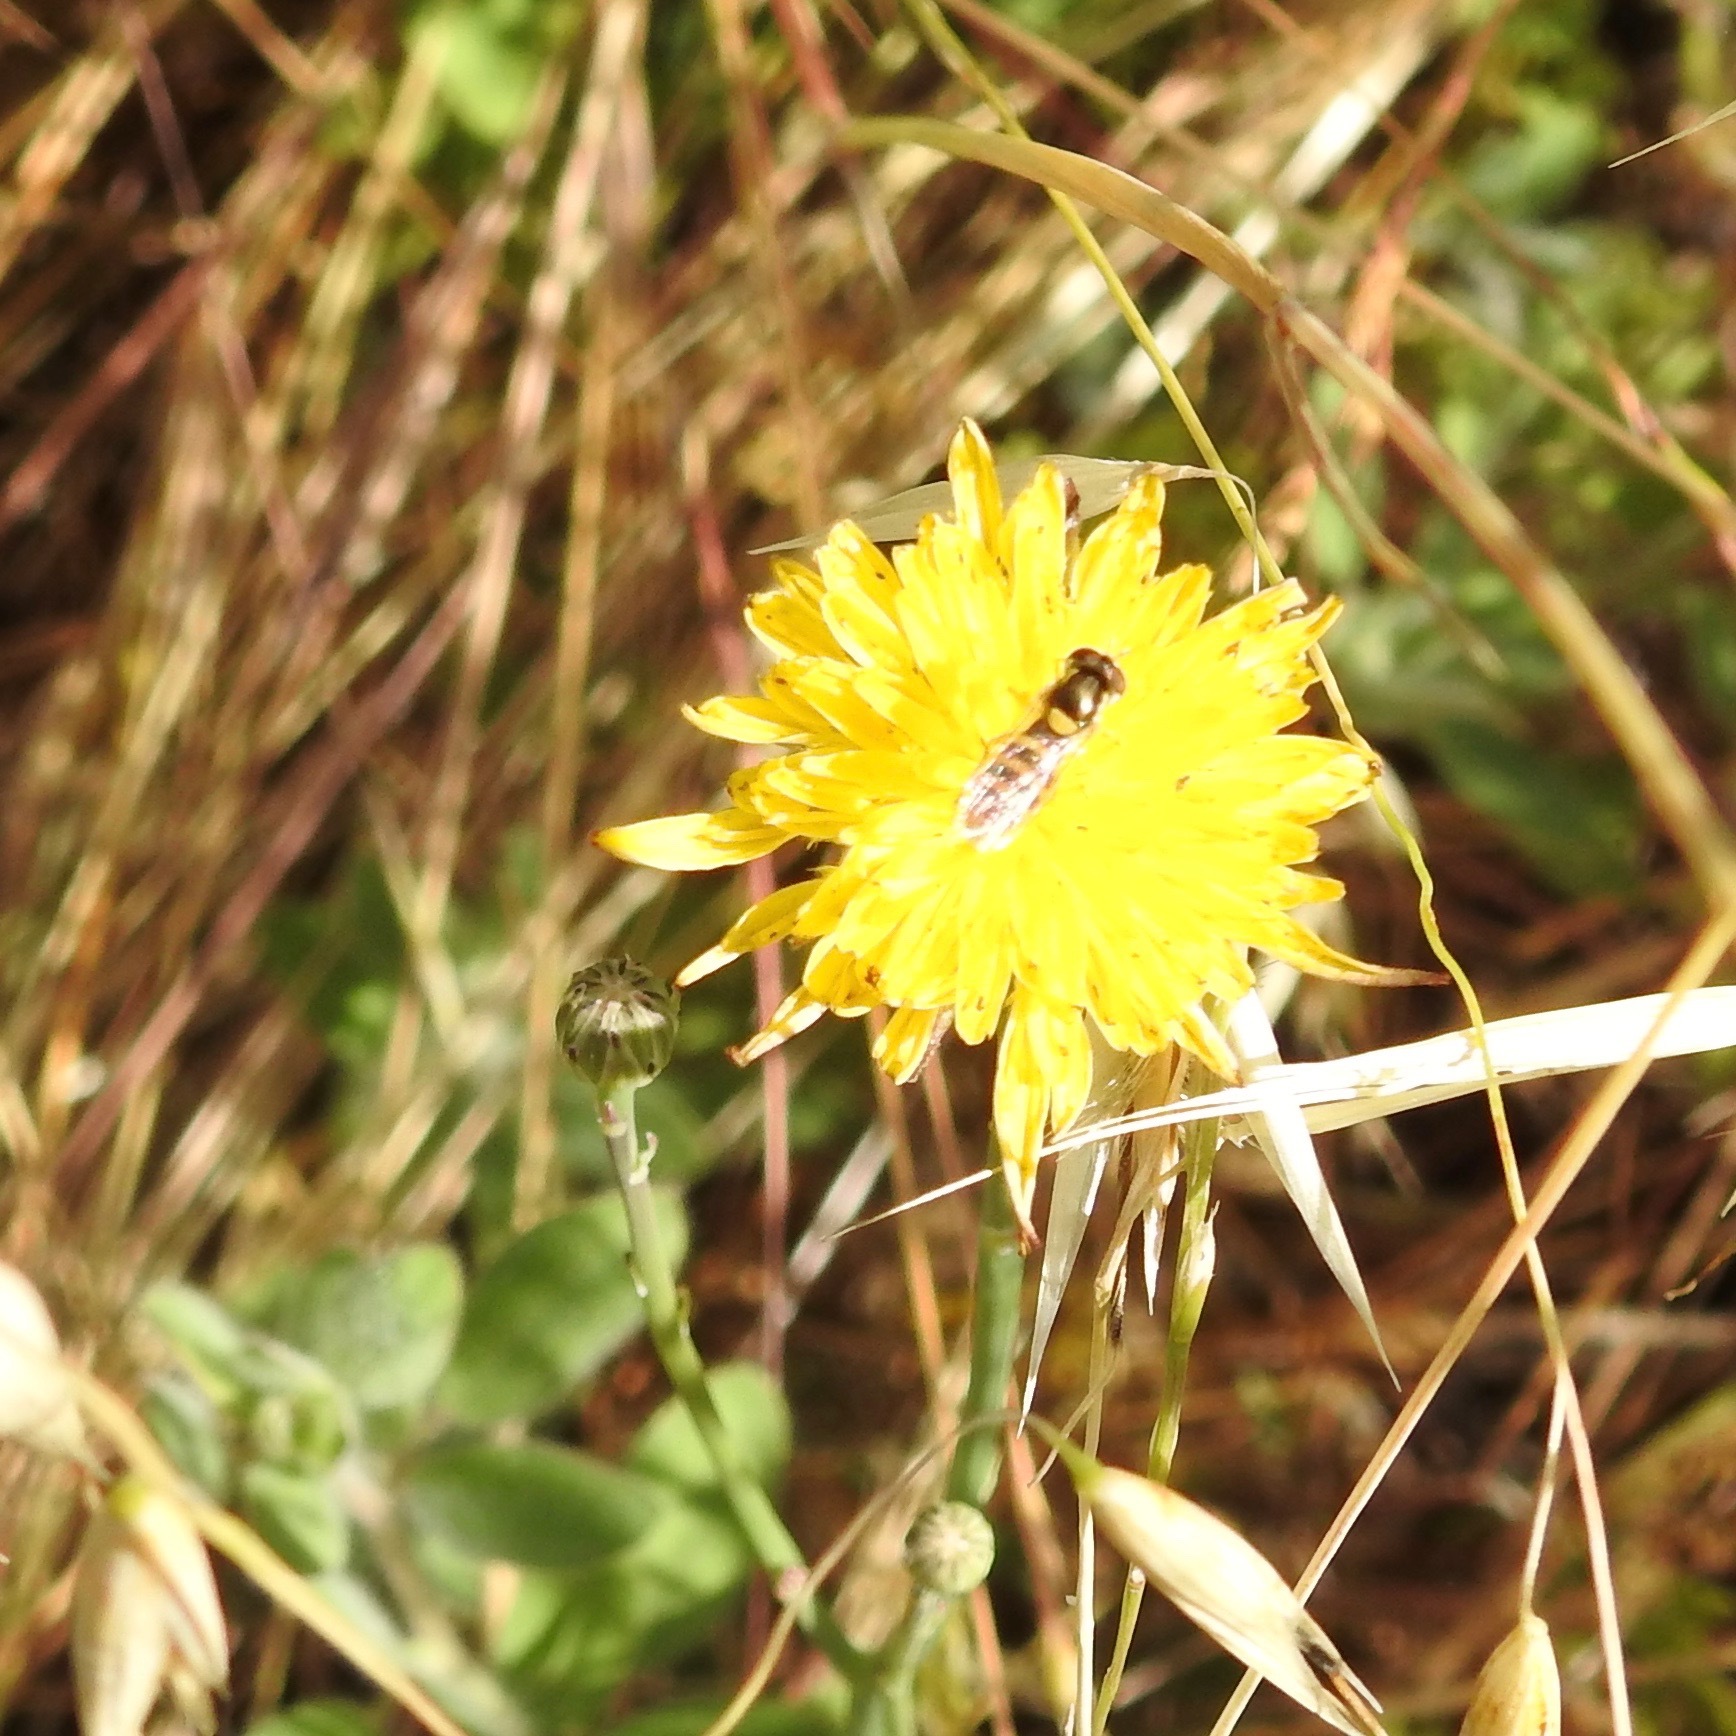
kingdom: Animalia
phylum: Arthropoda
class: Insecta
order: Diptera
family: Syrphidae
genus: Sphaerophoria
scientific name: Sphaerophoria
